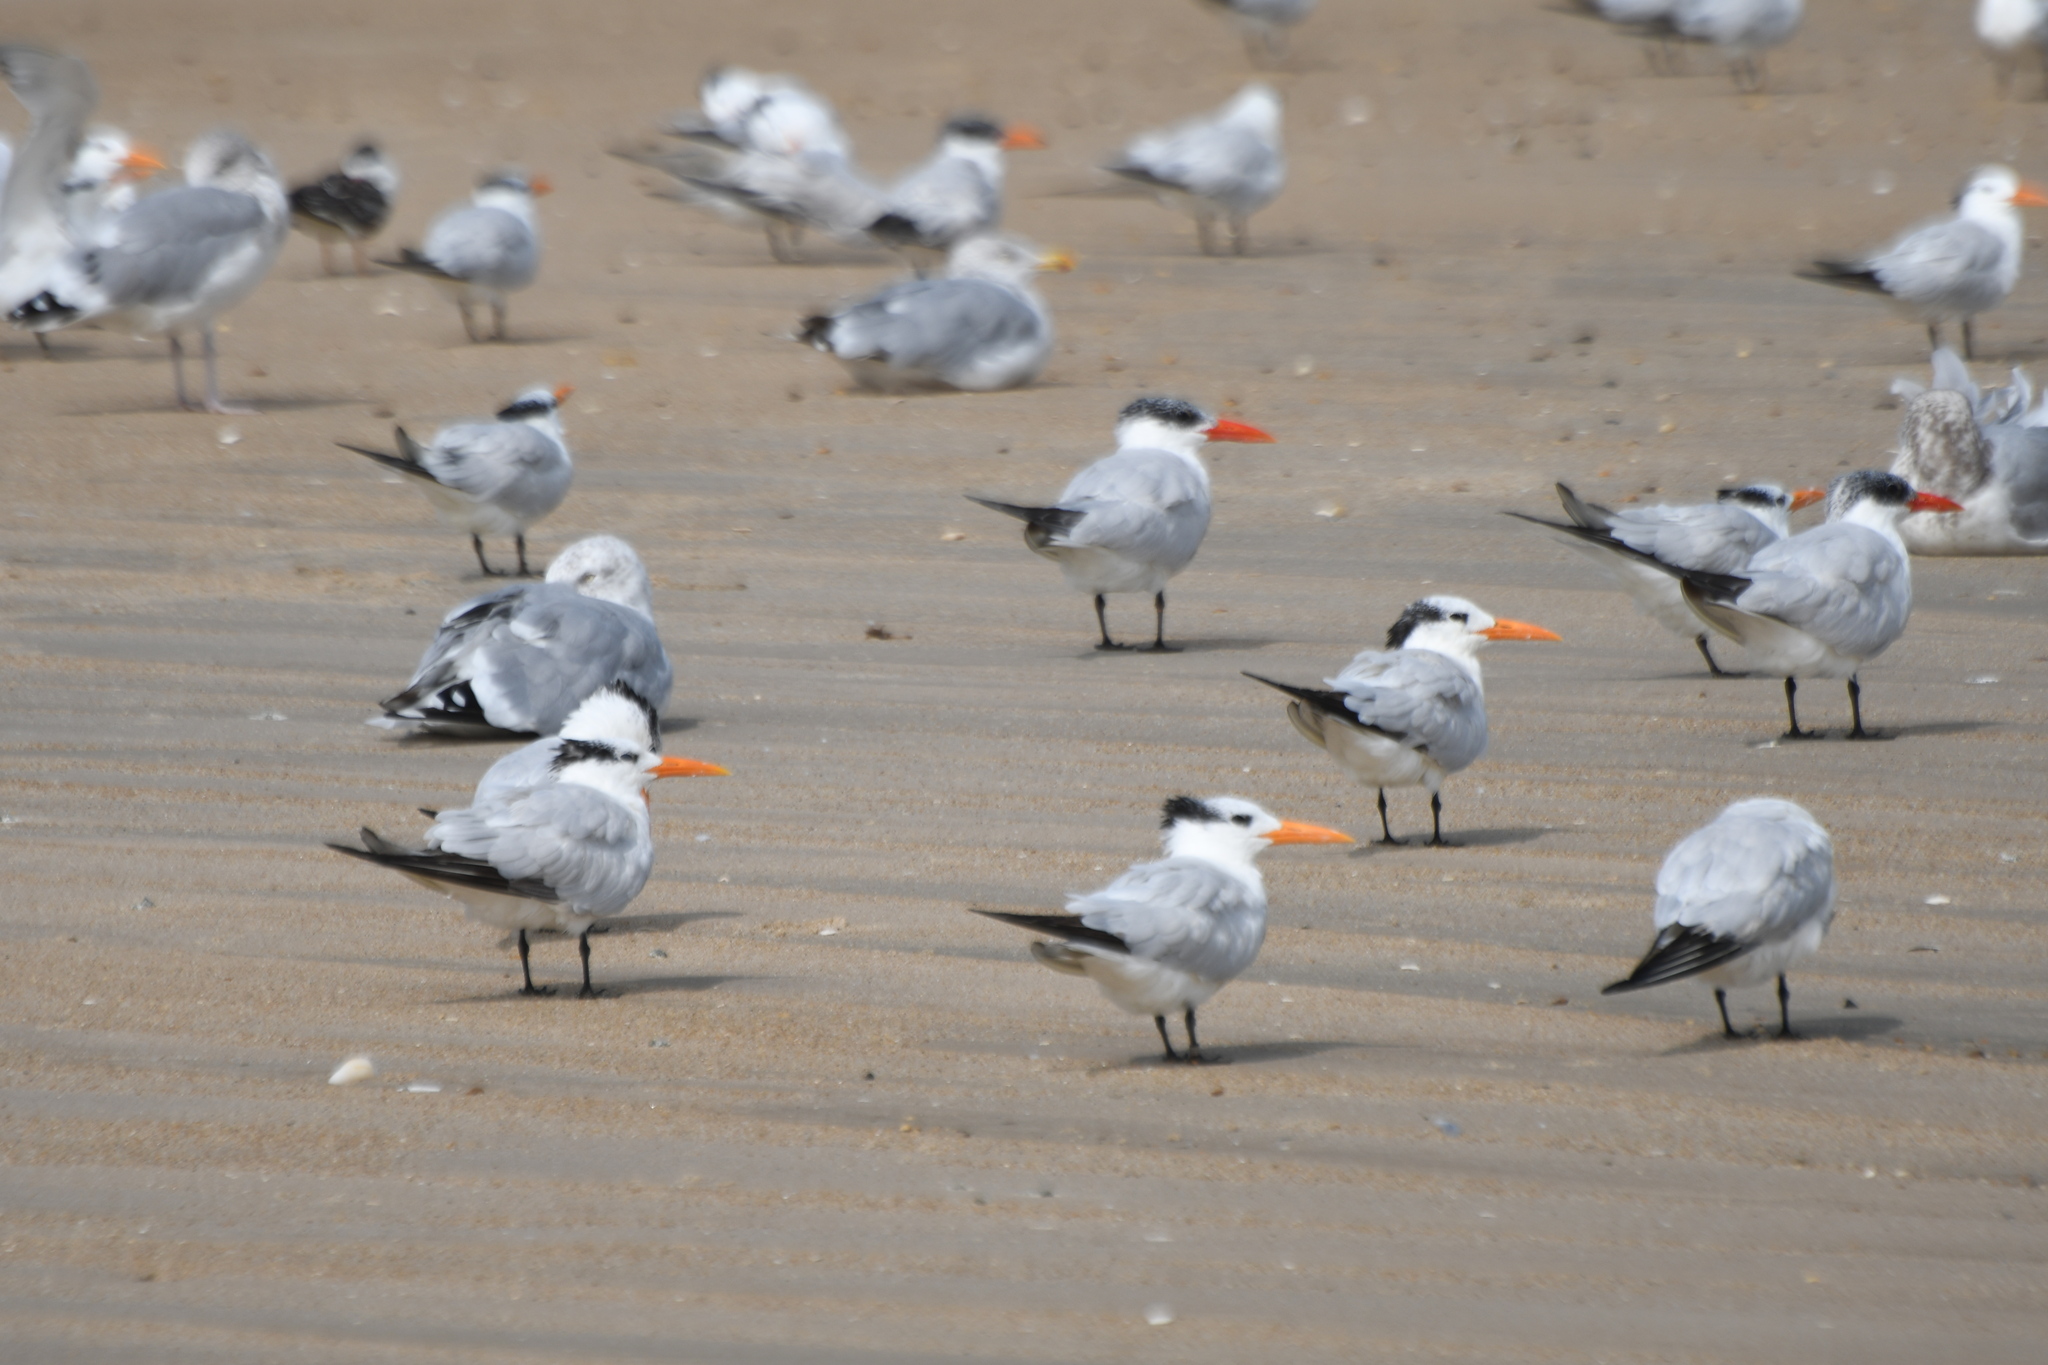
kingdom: Animalia
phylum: Chordata
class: Aves
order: Charadriiformes
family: Laridae
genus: Thalasseus
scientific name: Thalasseus maximus
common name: Royal tern
